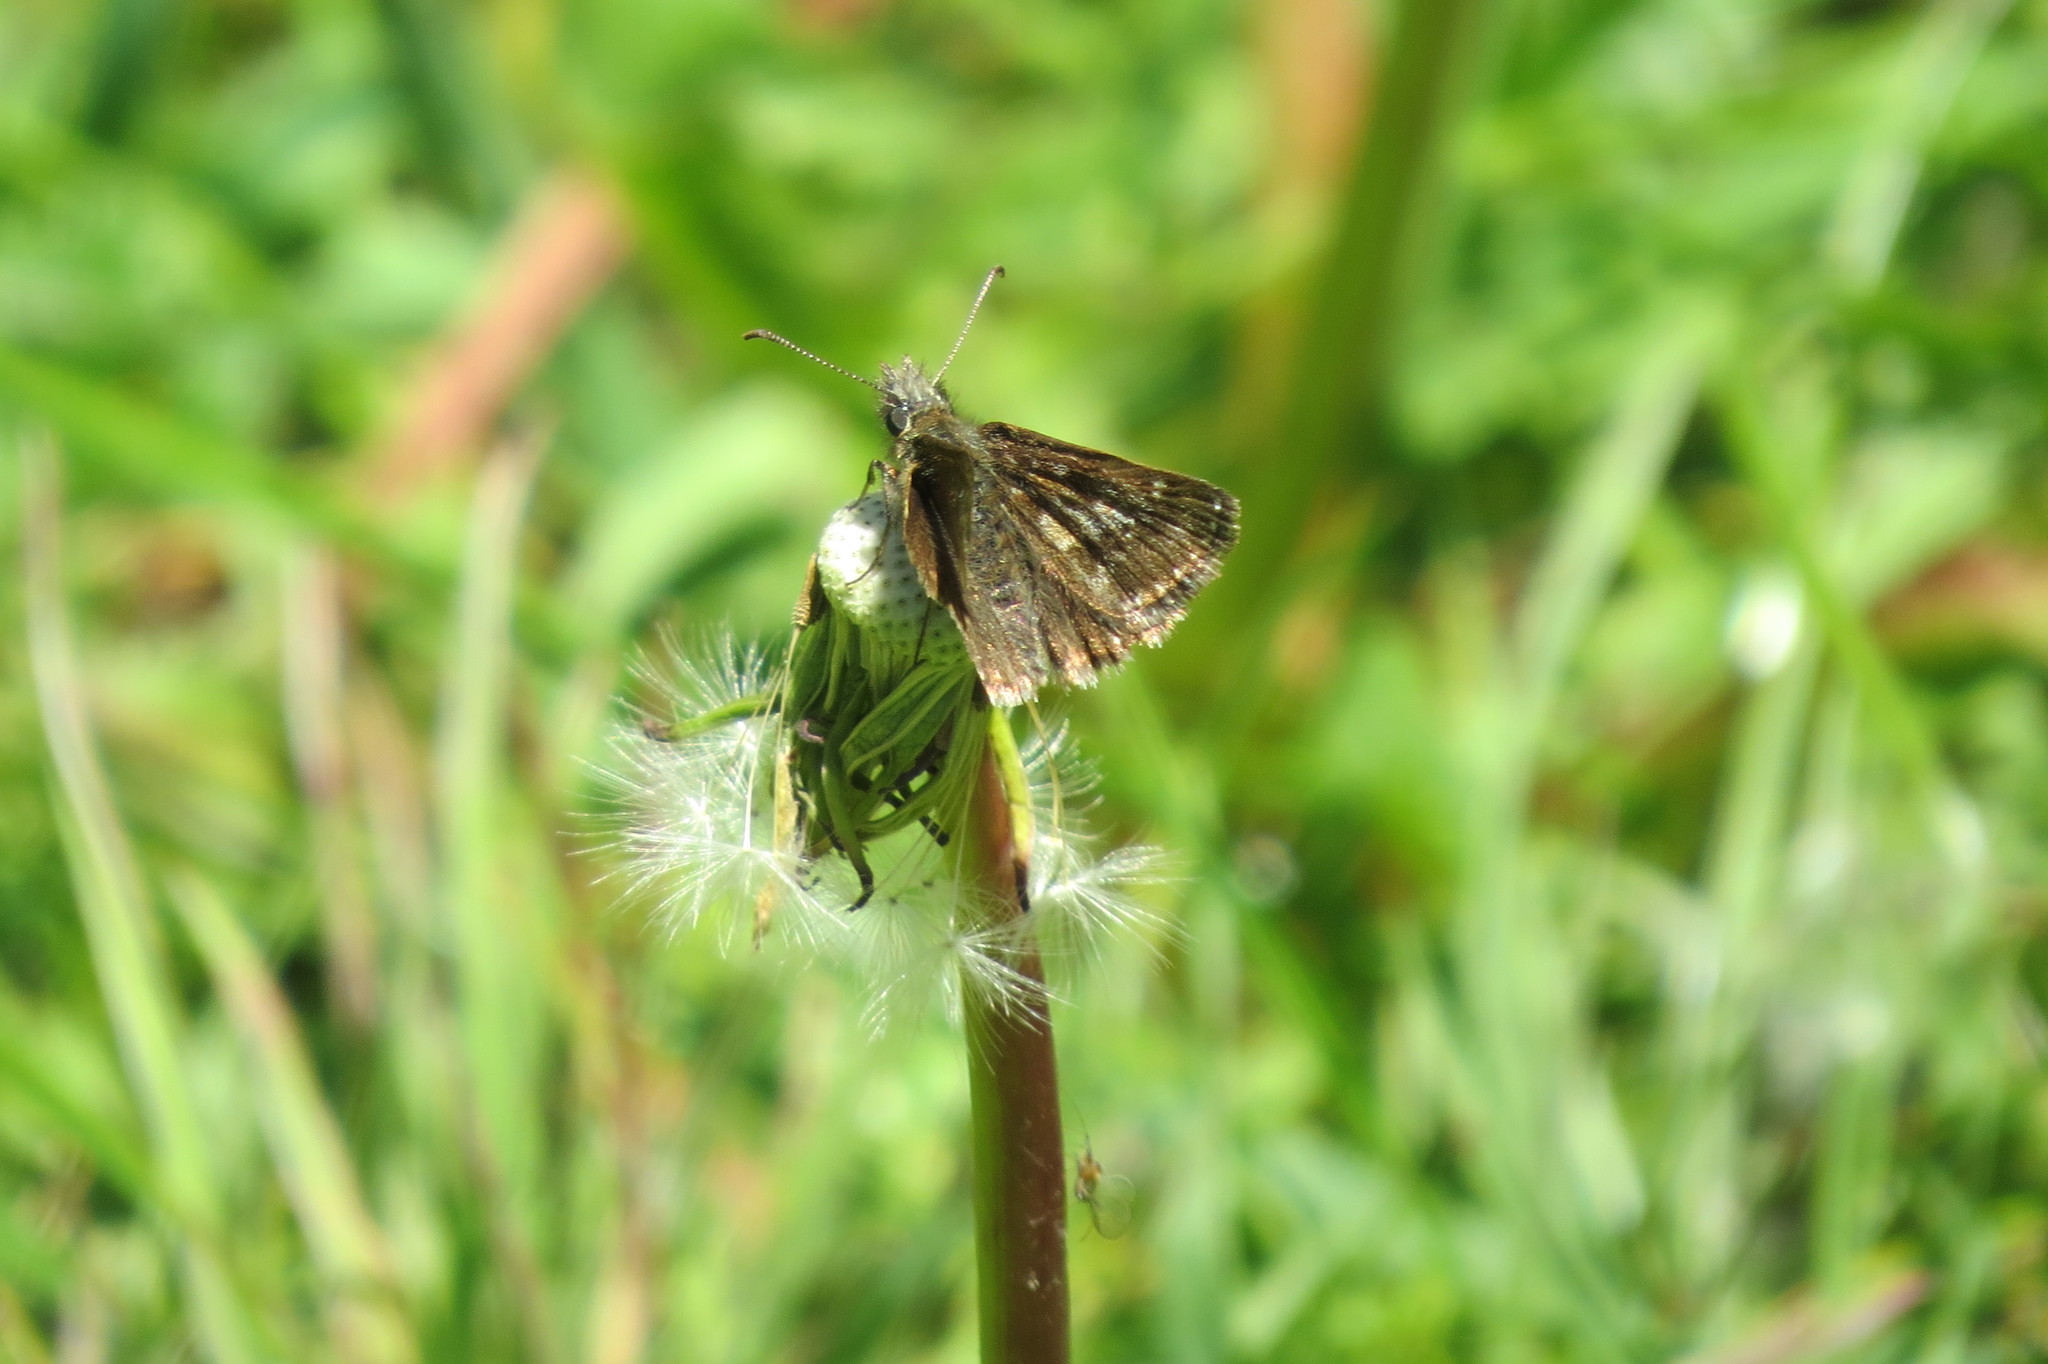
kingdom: Animalia
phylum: Arthropoda
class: Insecta
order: Lepidoptera
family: Hesperiidae
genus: Erynnis
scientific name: Erynnis tages
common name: Dingy skipper
